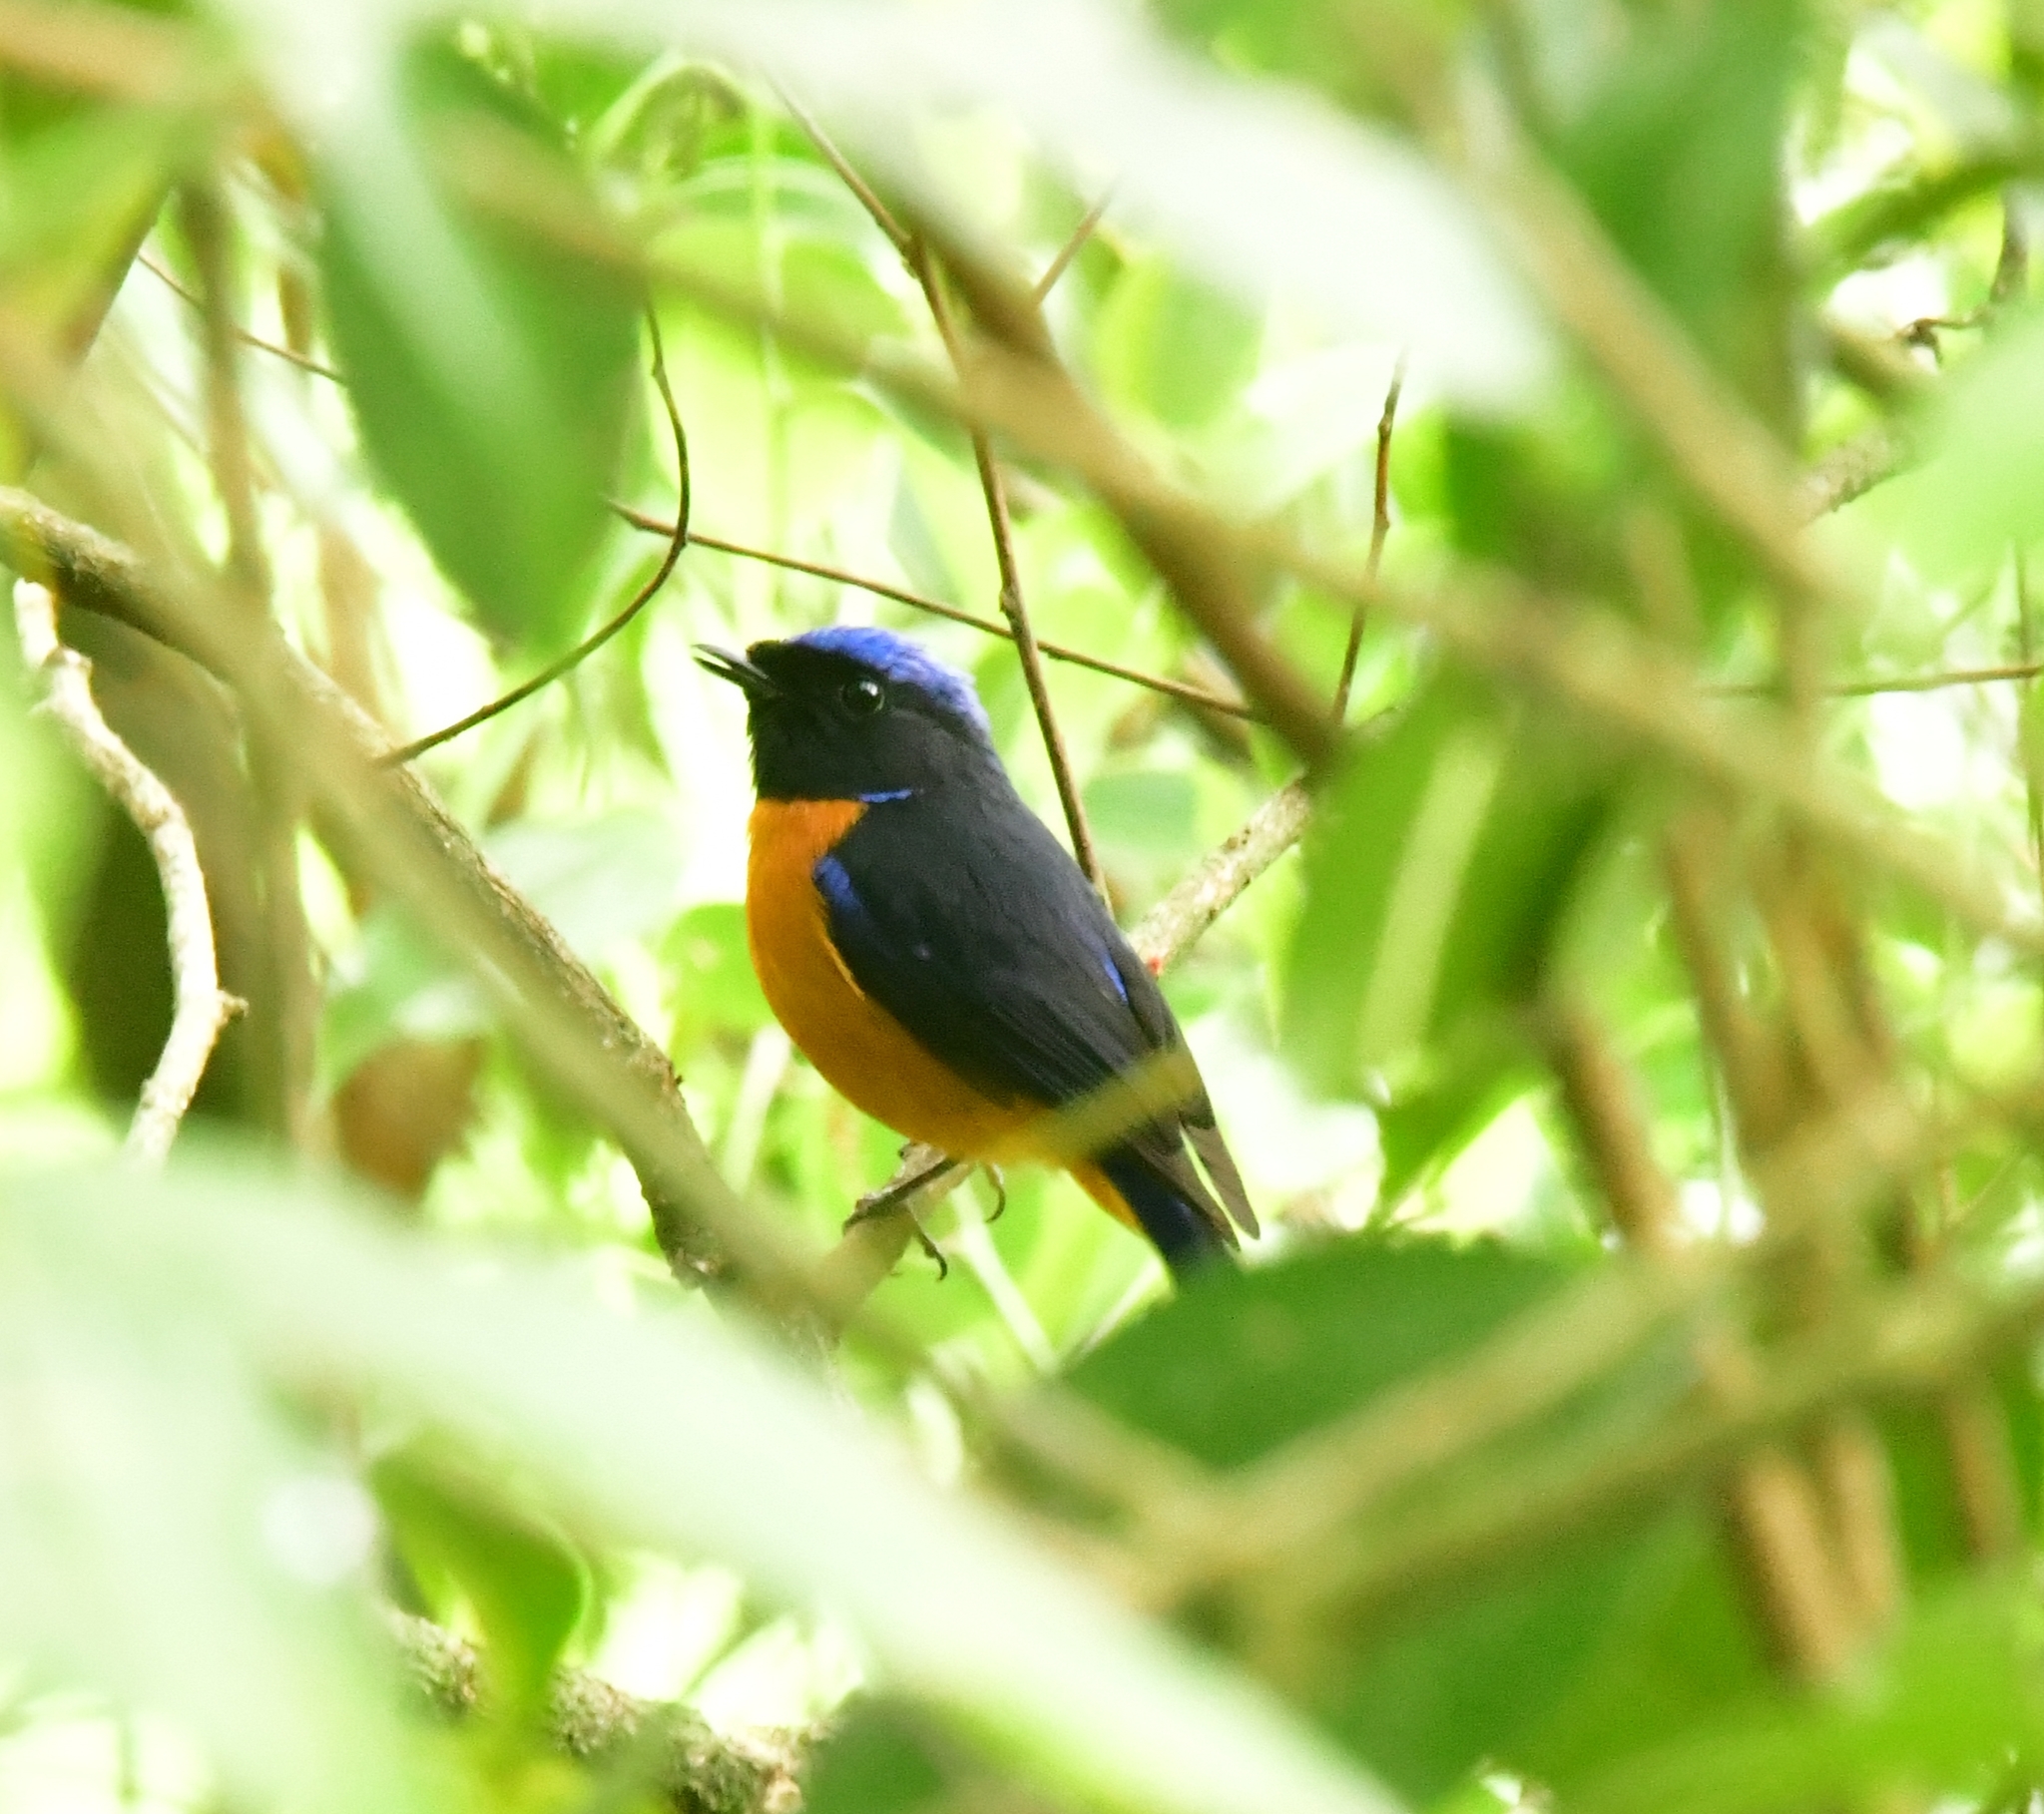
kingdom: Animalia
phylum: Chordata
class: Aves
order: Passeriformes
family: Muscicapidae
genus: Niltava
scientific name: Niltava sundara
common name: Rufous-bellied niltava
